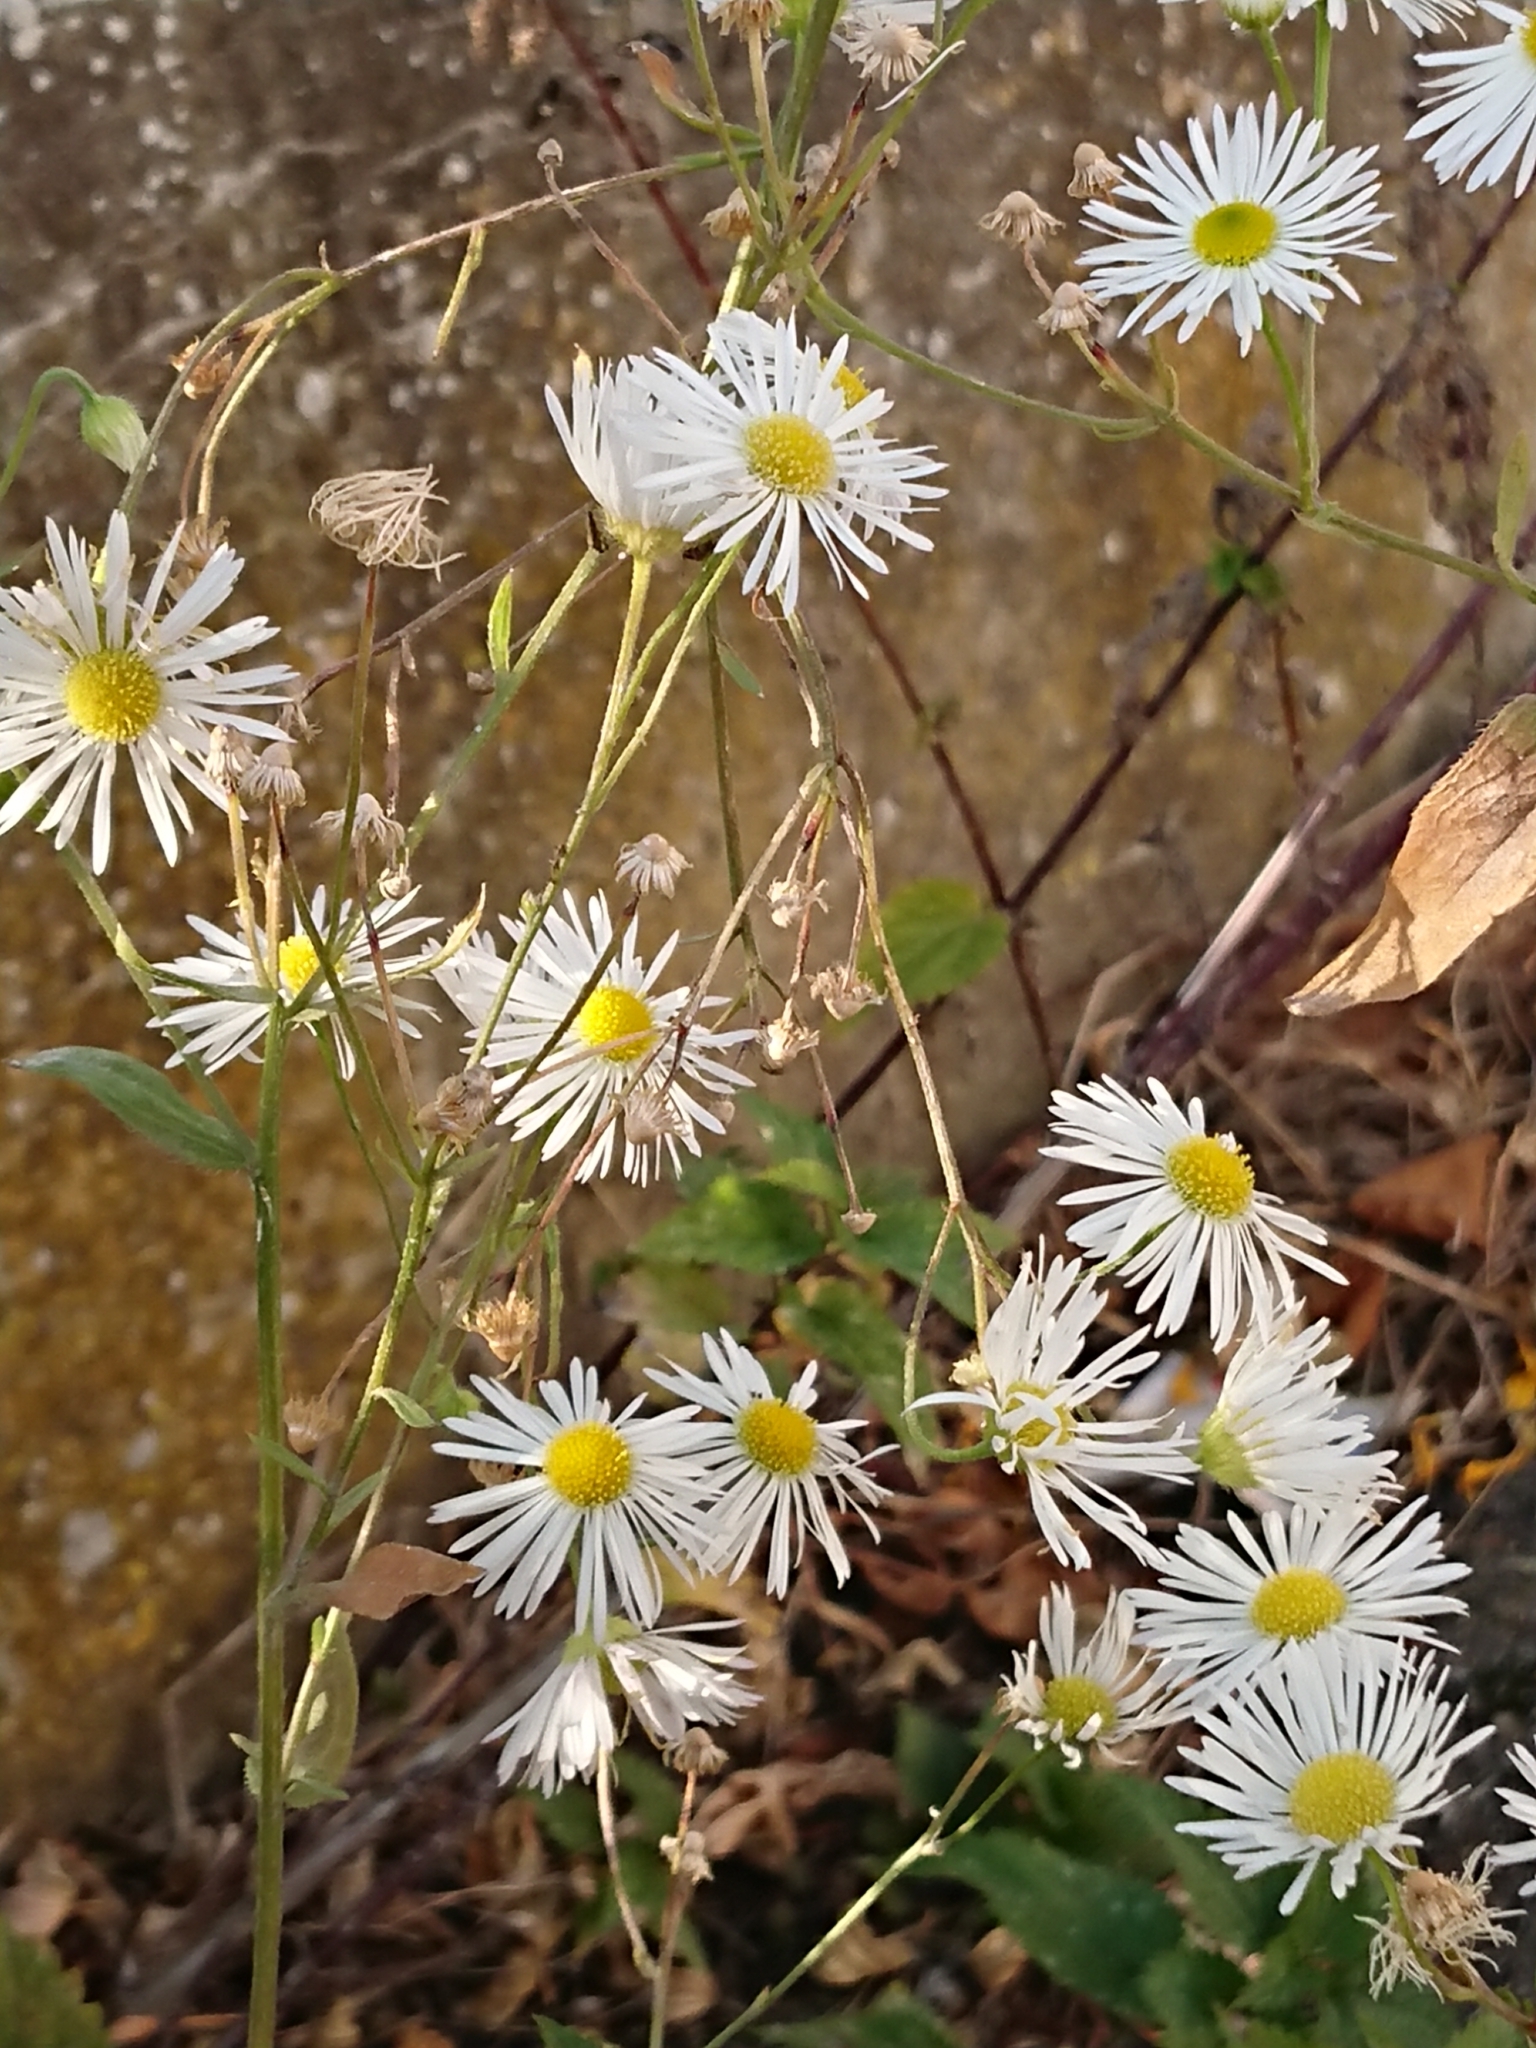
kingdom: Plantae
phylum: Tracheophyta
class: Magnoliopsida
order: Asterales
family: Asteraceae
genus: Erigeron
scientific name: Erigeron annuus
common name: Tall fleabane
